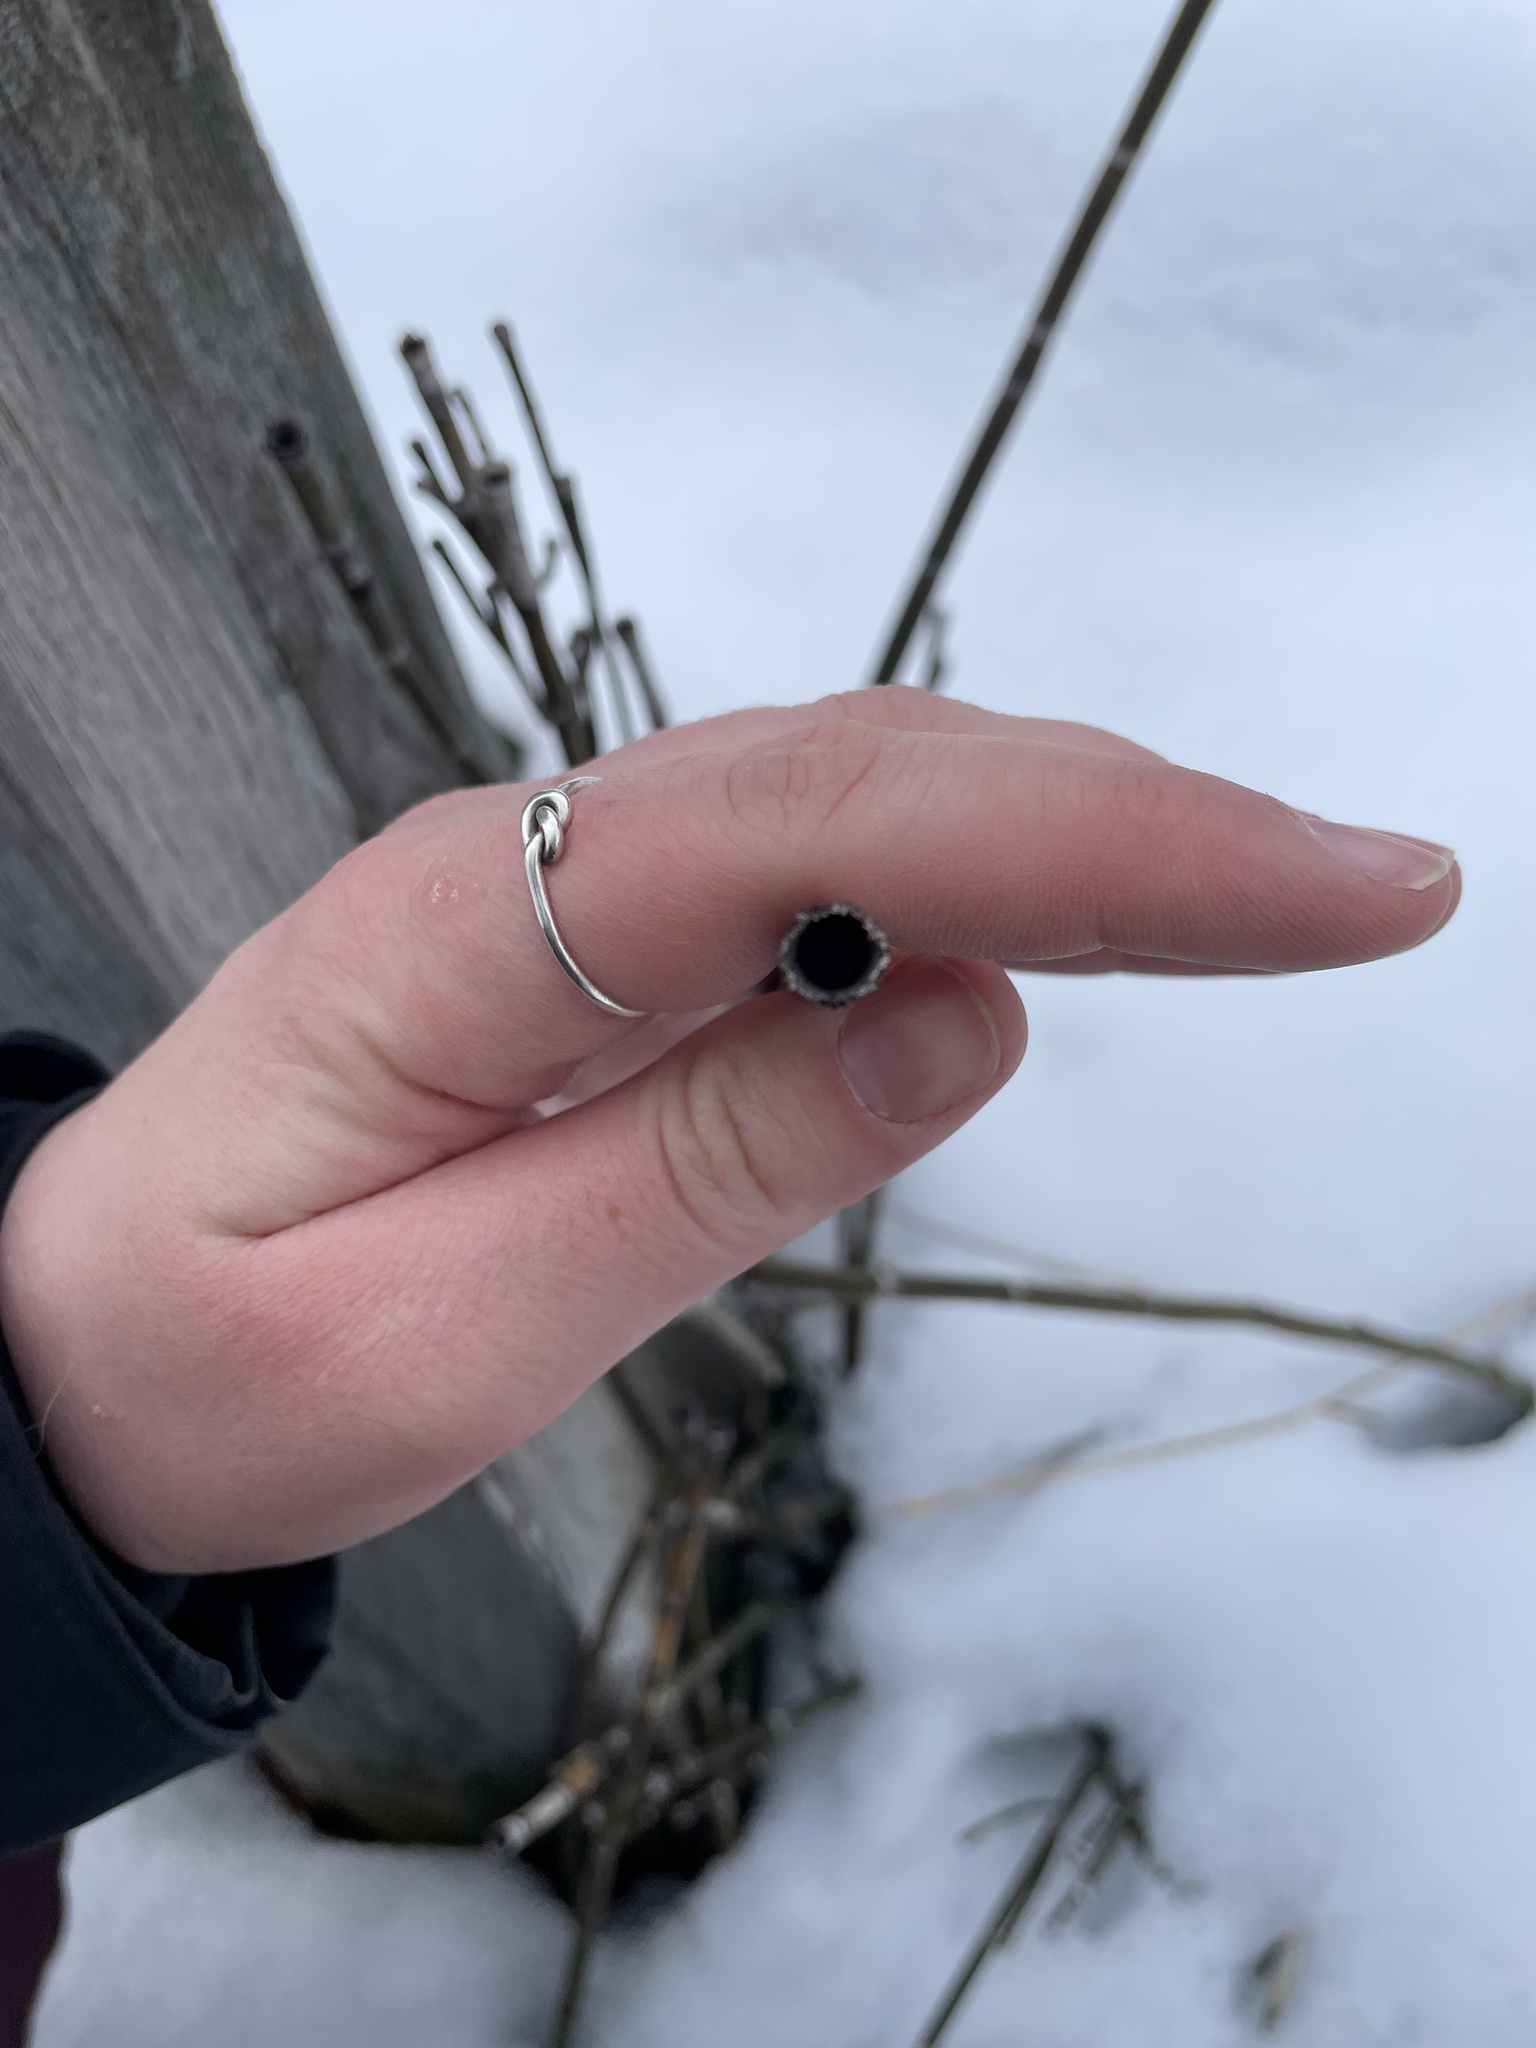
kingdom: Plantae
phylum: Tracheophyta
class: Polypodiopsida
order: Equisetales
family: Equisetaceae
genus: Equisetum
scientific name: Equisetum praealtum
